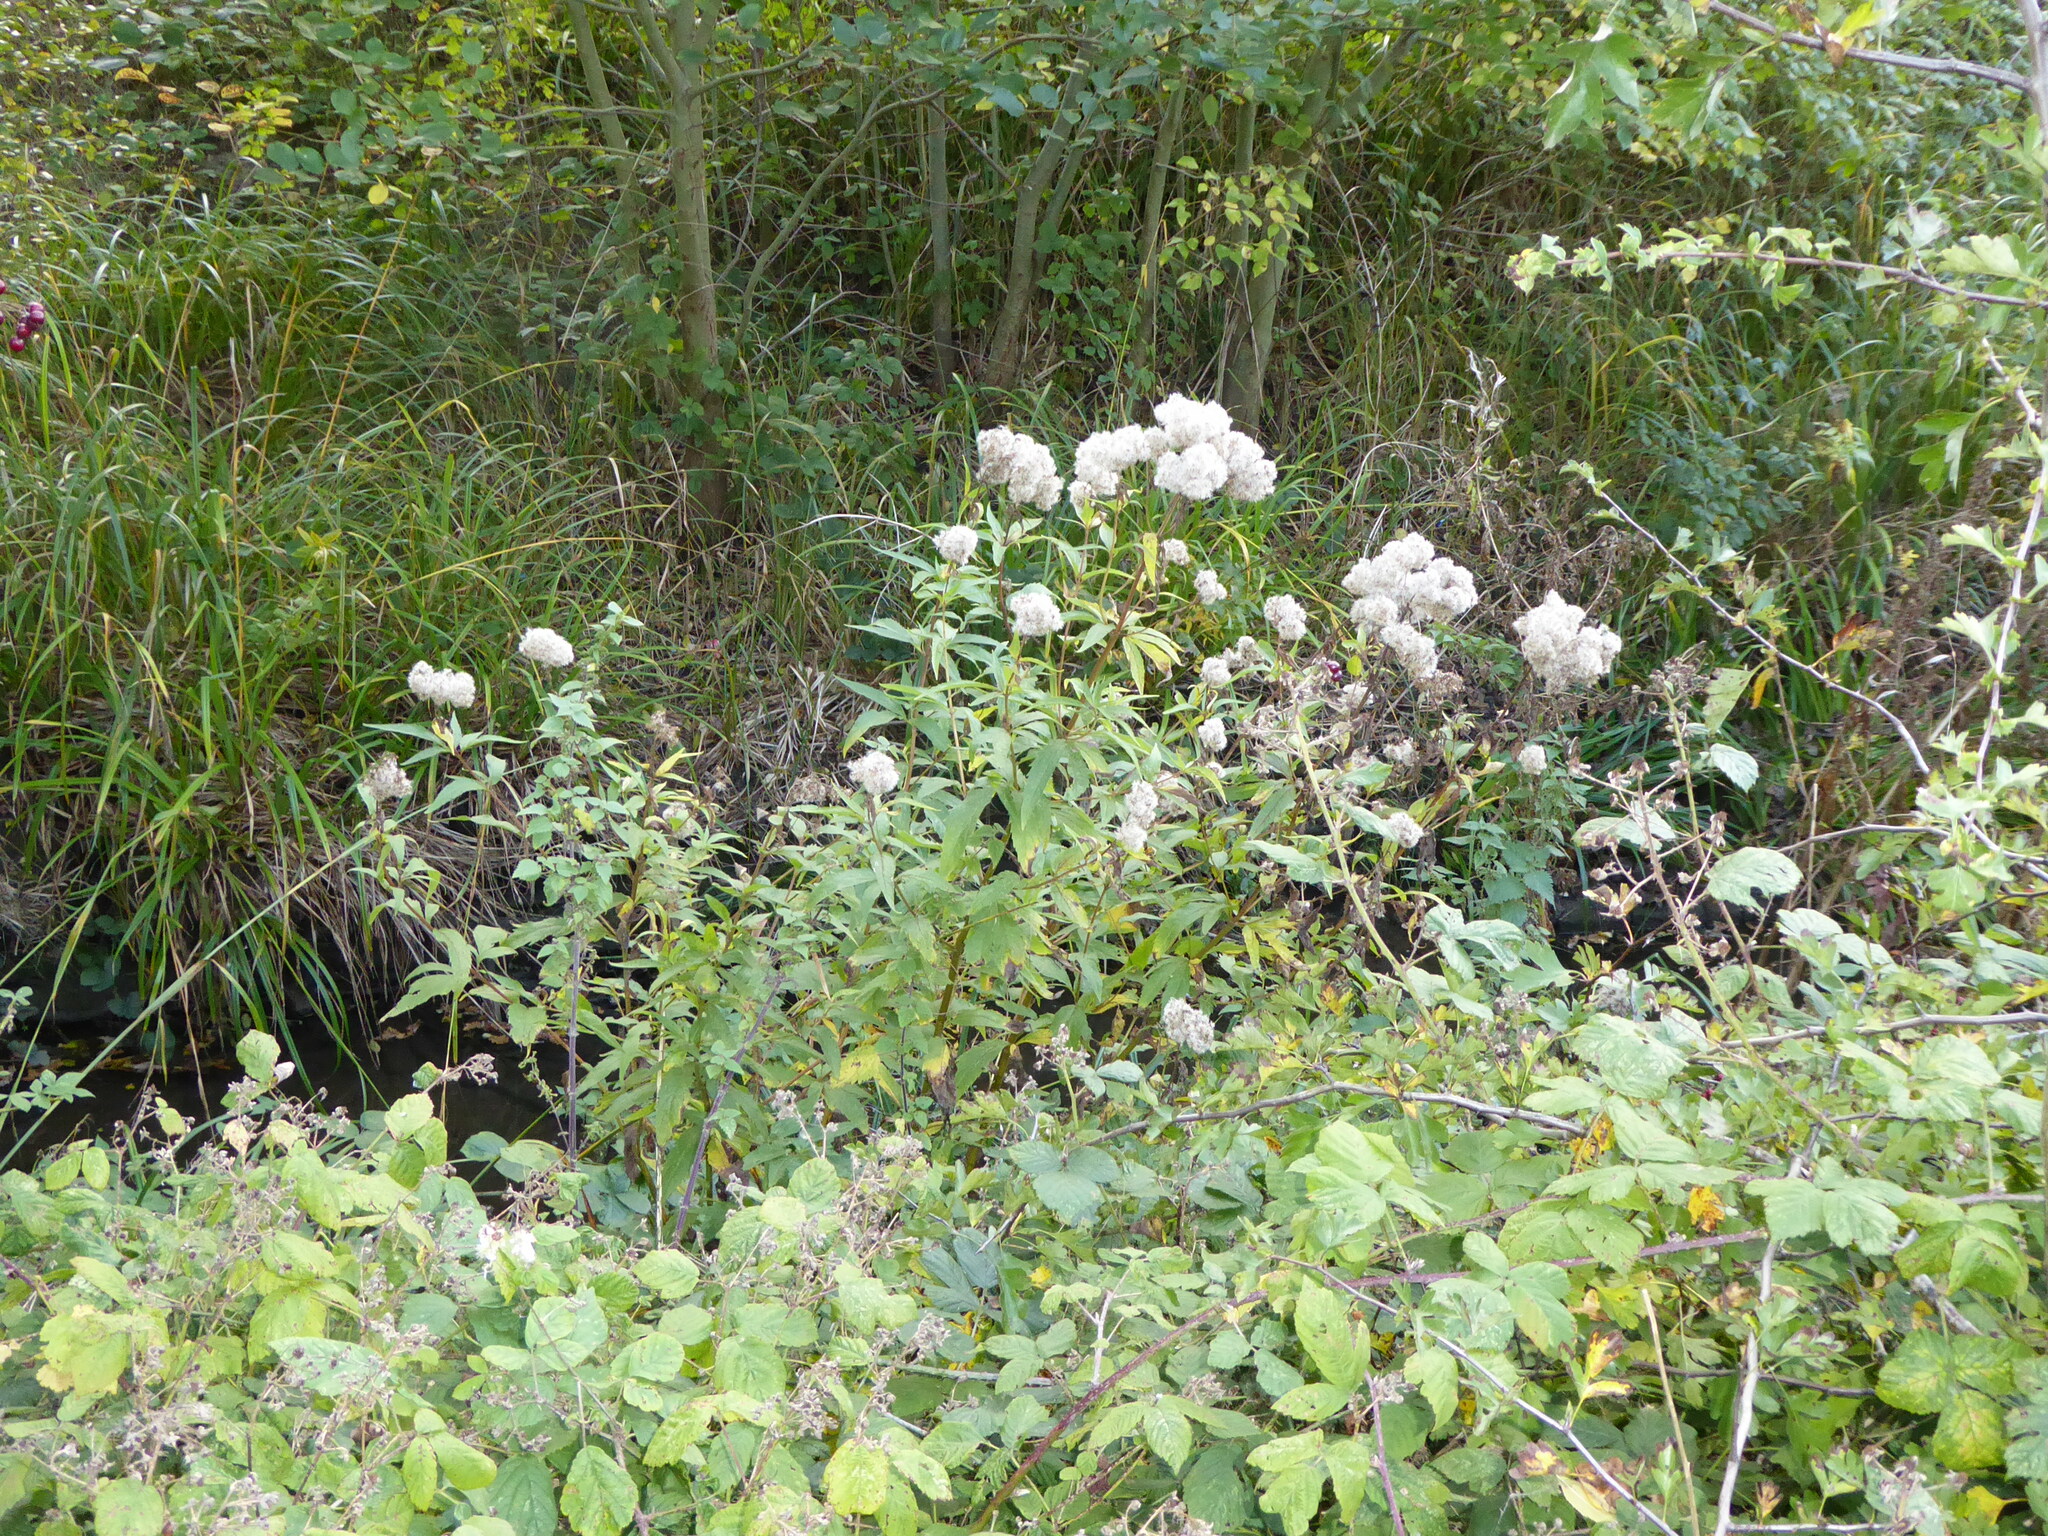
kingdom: Plantae
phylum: Tracheophyta
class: Magnoliopsida
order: Asterales
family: Asteraceae
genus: Eupatorium
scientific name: Eupatorium cannabinum
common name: Hemp-agrimony
